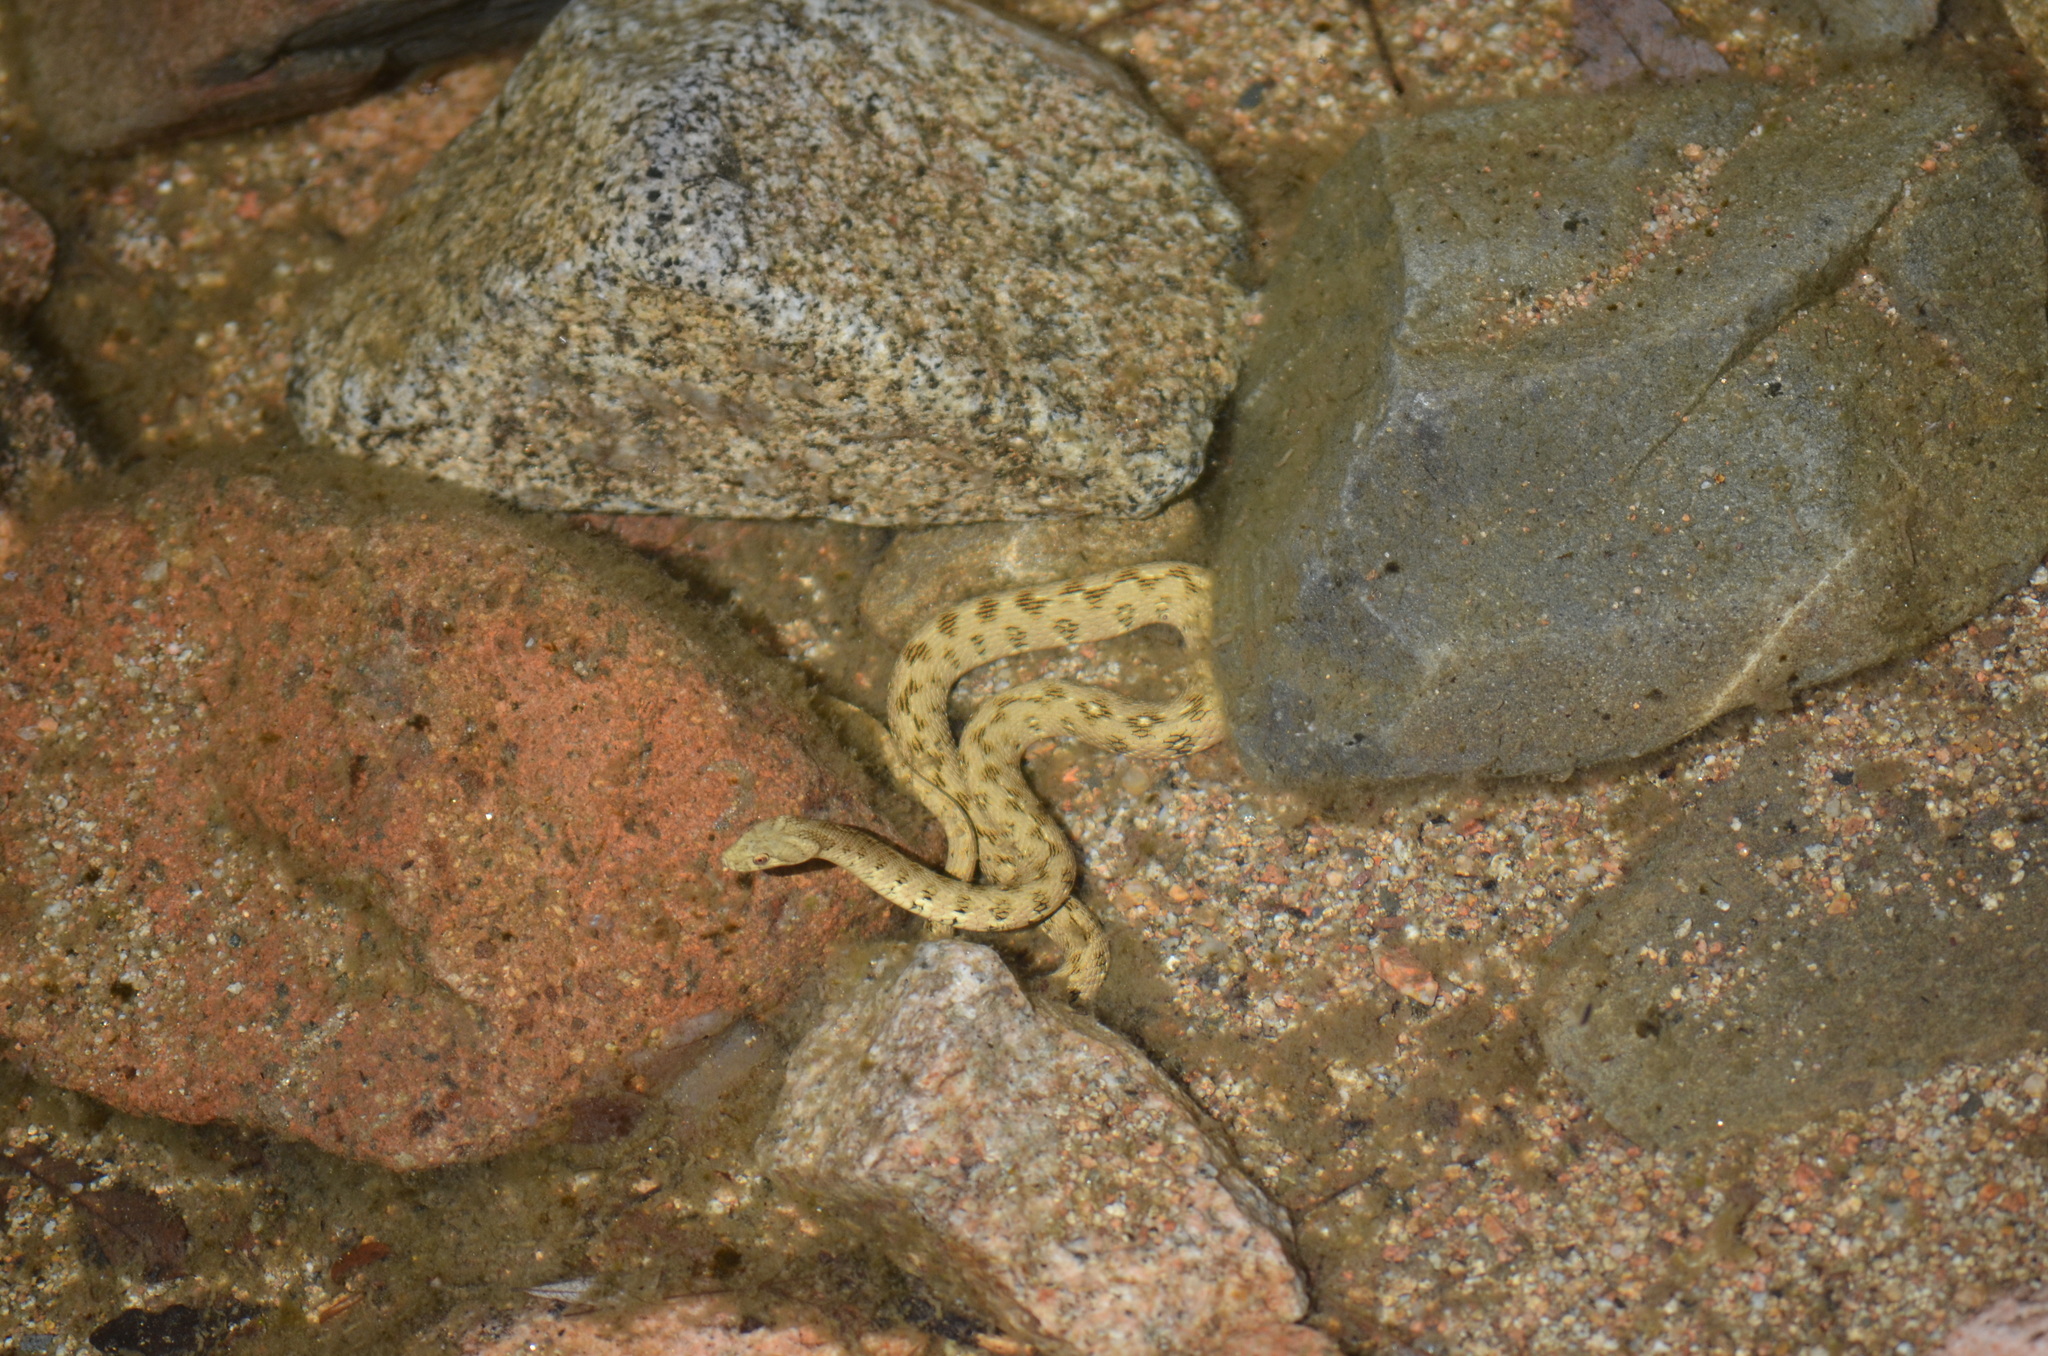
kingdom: Animalia
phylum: Chordata
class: Squamata
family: Colubridae
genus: Natrix
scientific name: Natrix maura
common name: Viperine water snake
